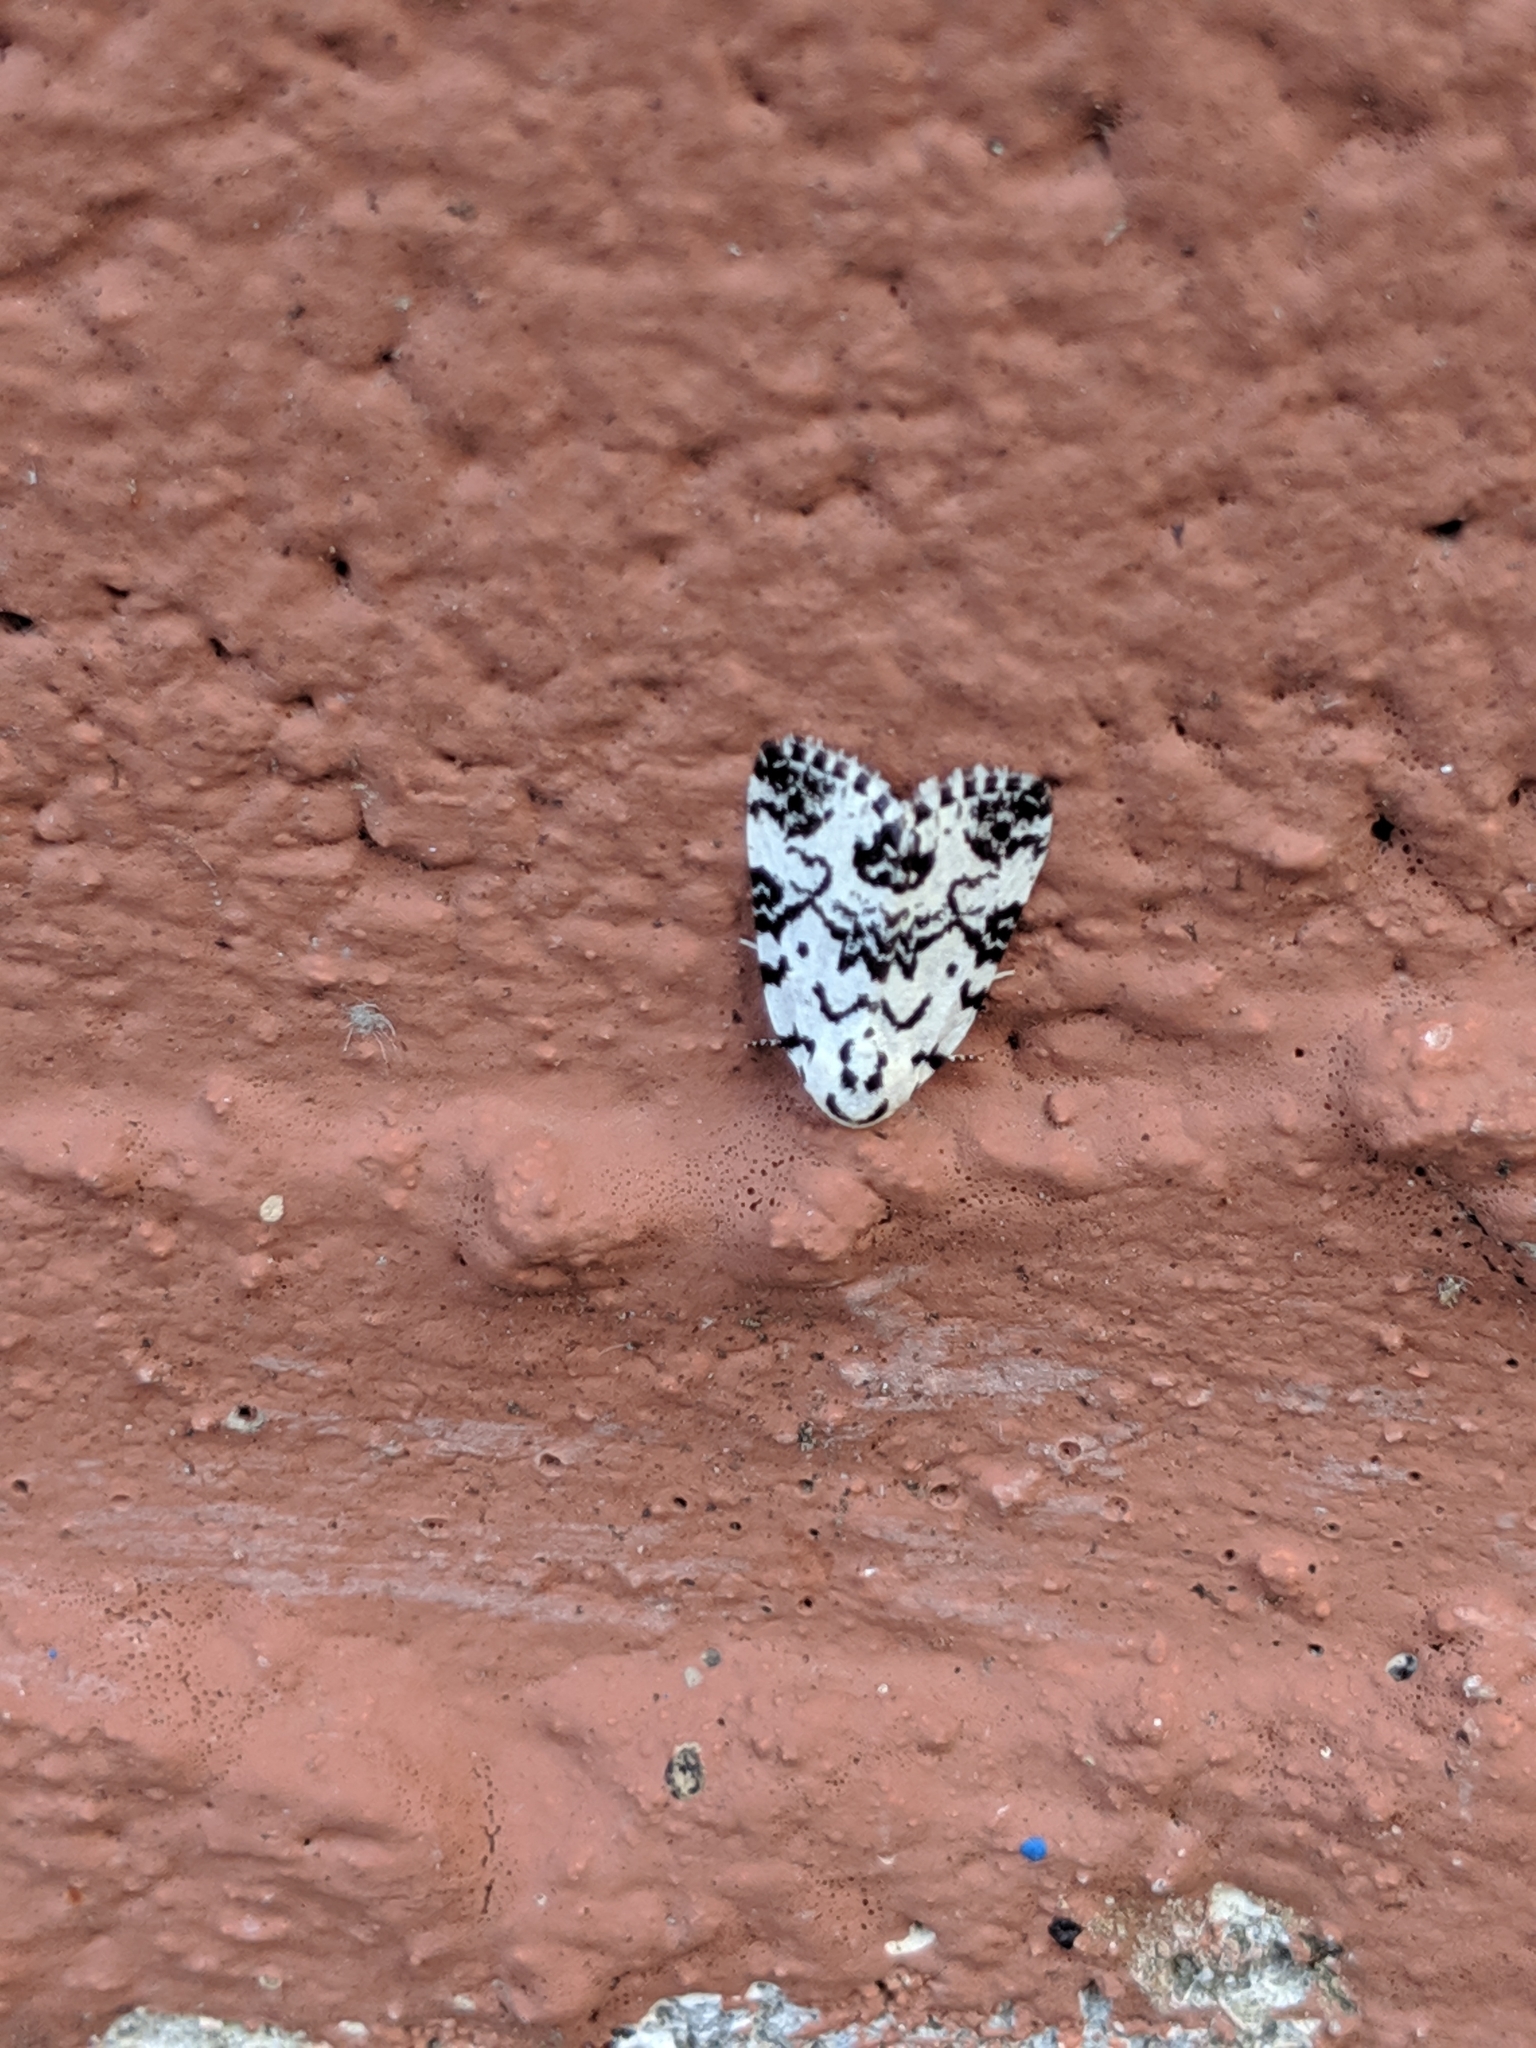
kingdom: Animalia
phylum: Arthropoda
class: Insecta
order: Lepidoptera
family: Noctuidae
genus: Polygrammate
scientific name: Polygrammate hebraeicum
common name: Hebrew moth
